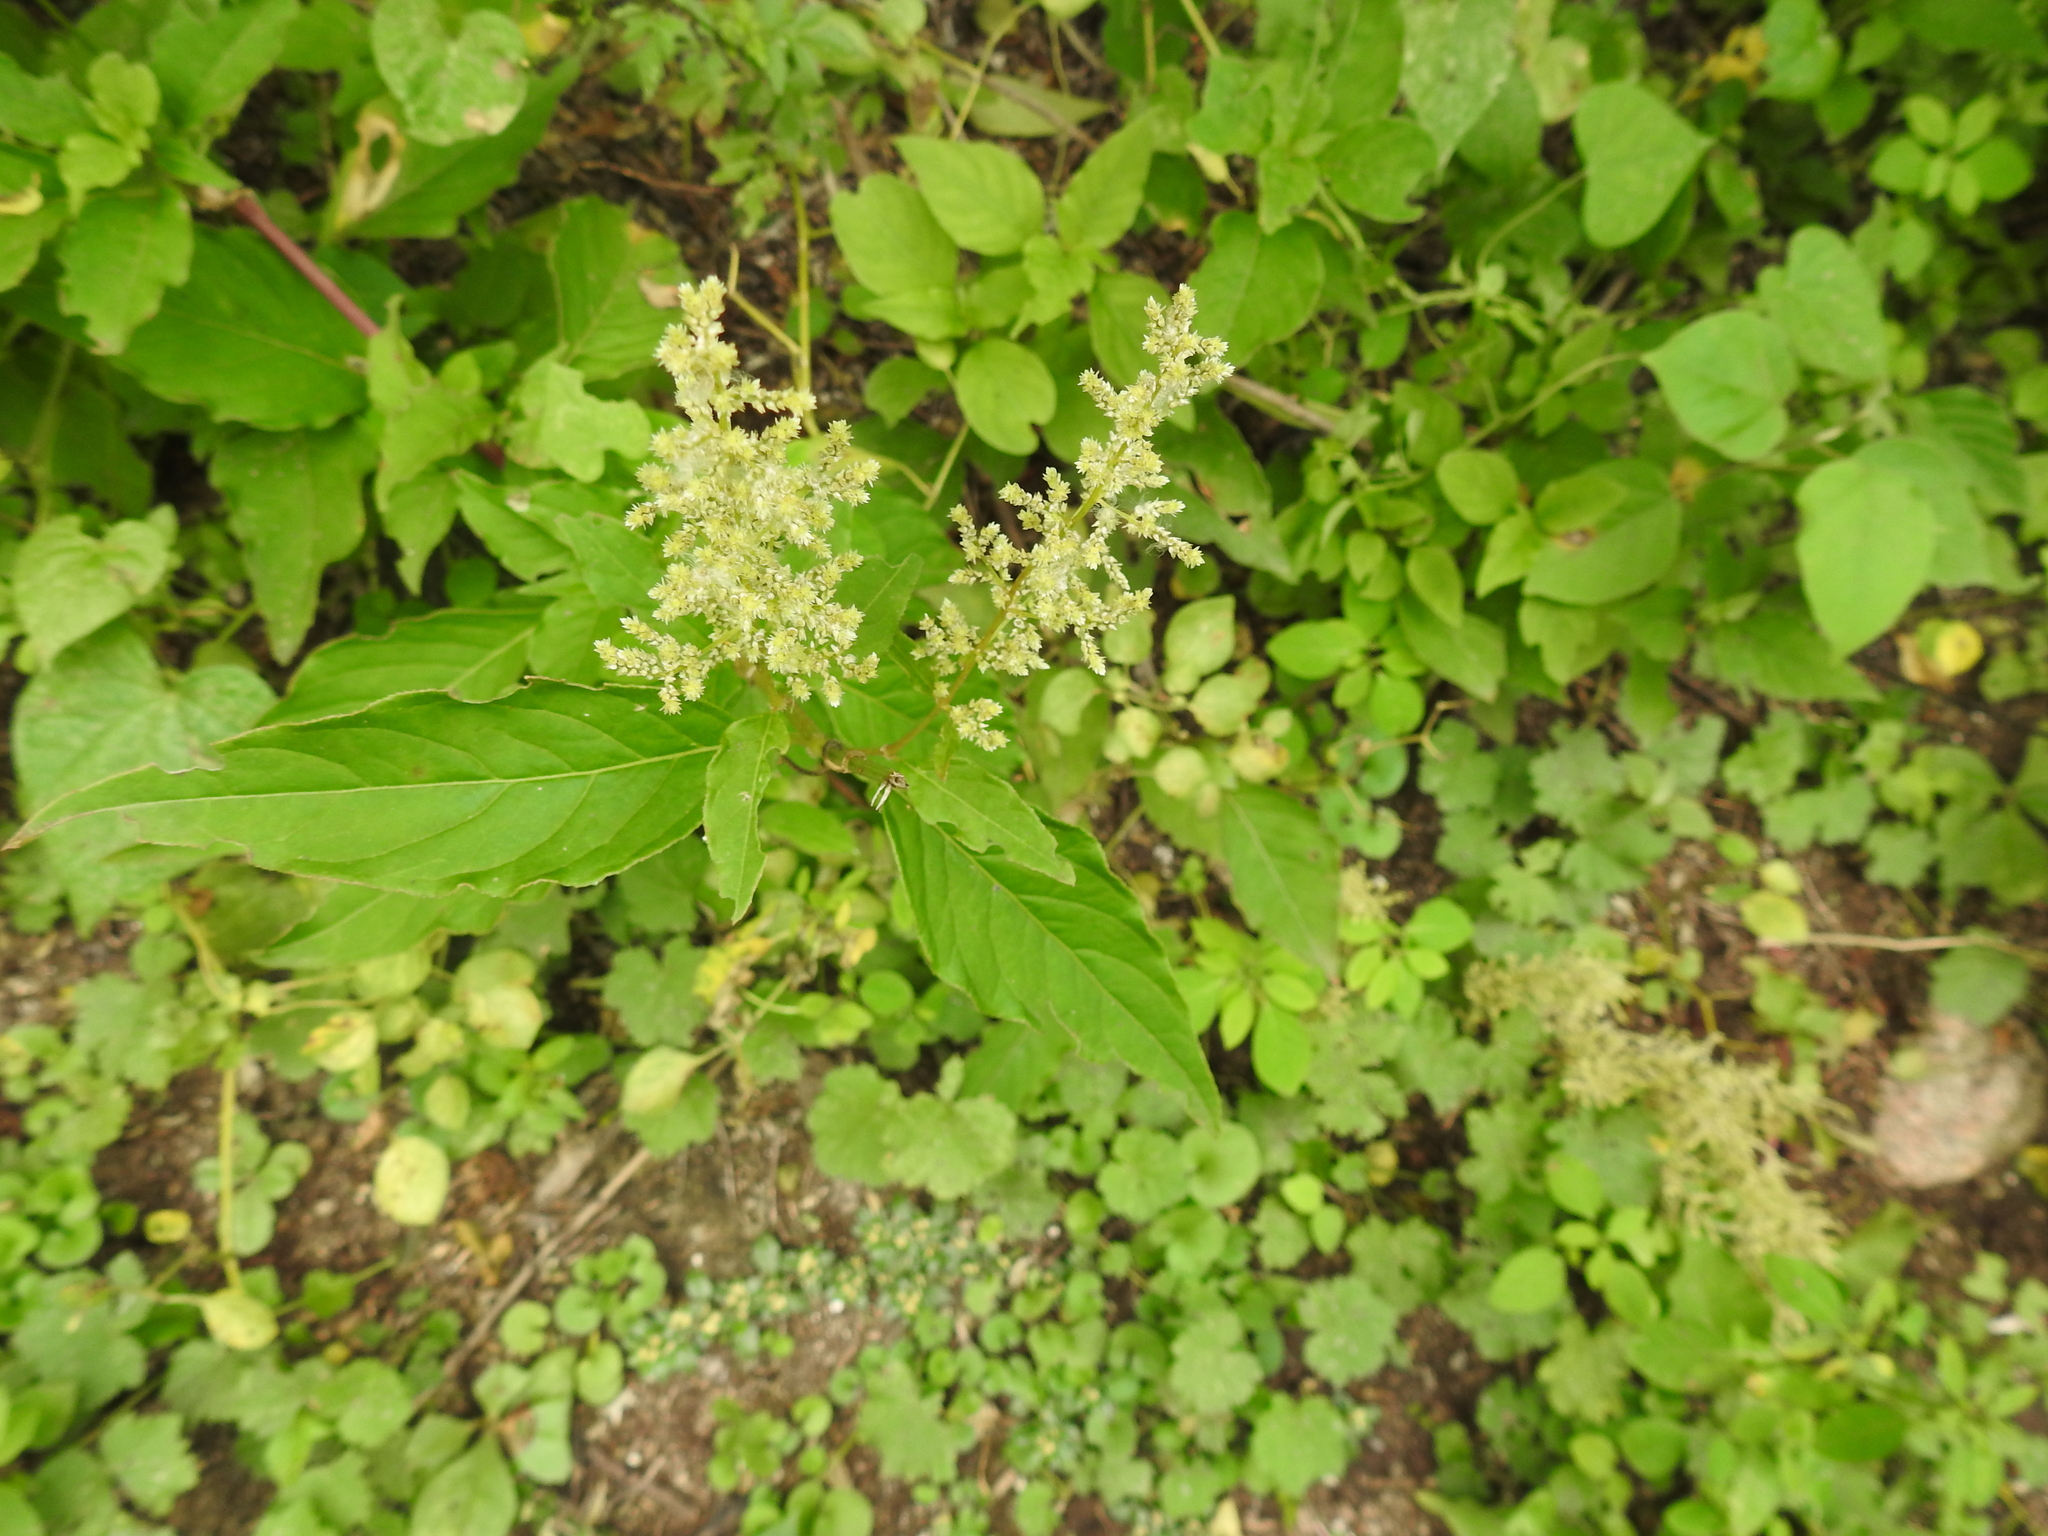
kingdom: Plantae
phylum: Tracheophyta
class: Magnoliopsida
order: Caryophyllales
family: Amaranthaceae
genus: Iresine
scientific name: Iresine diffusa
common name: Juba's-bush
